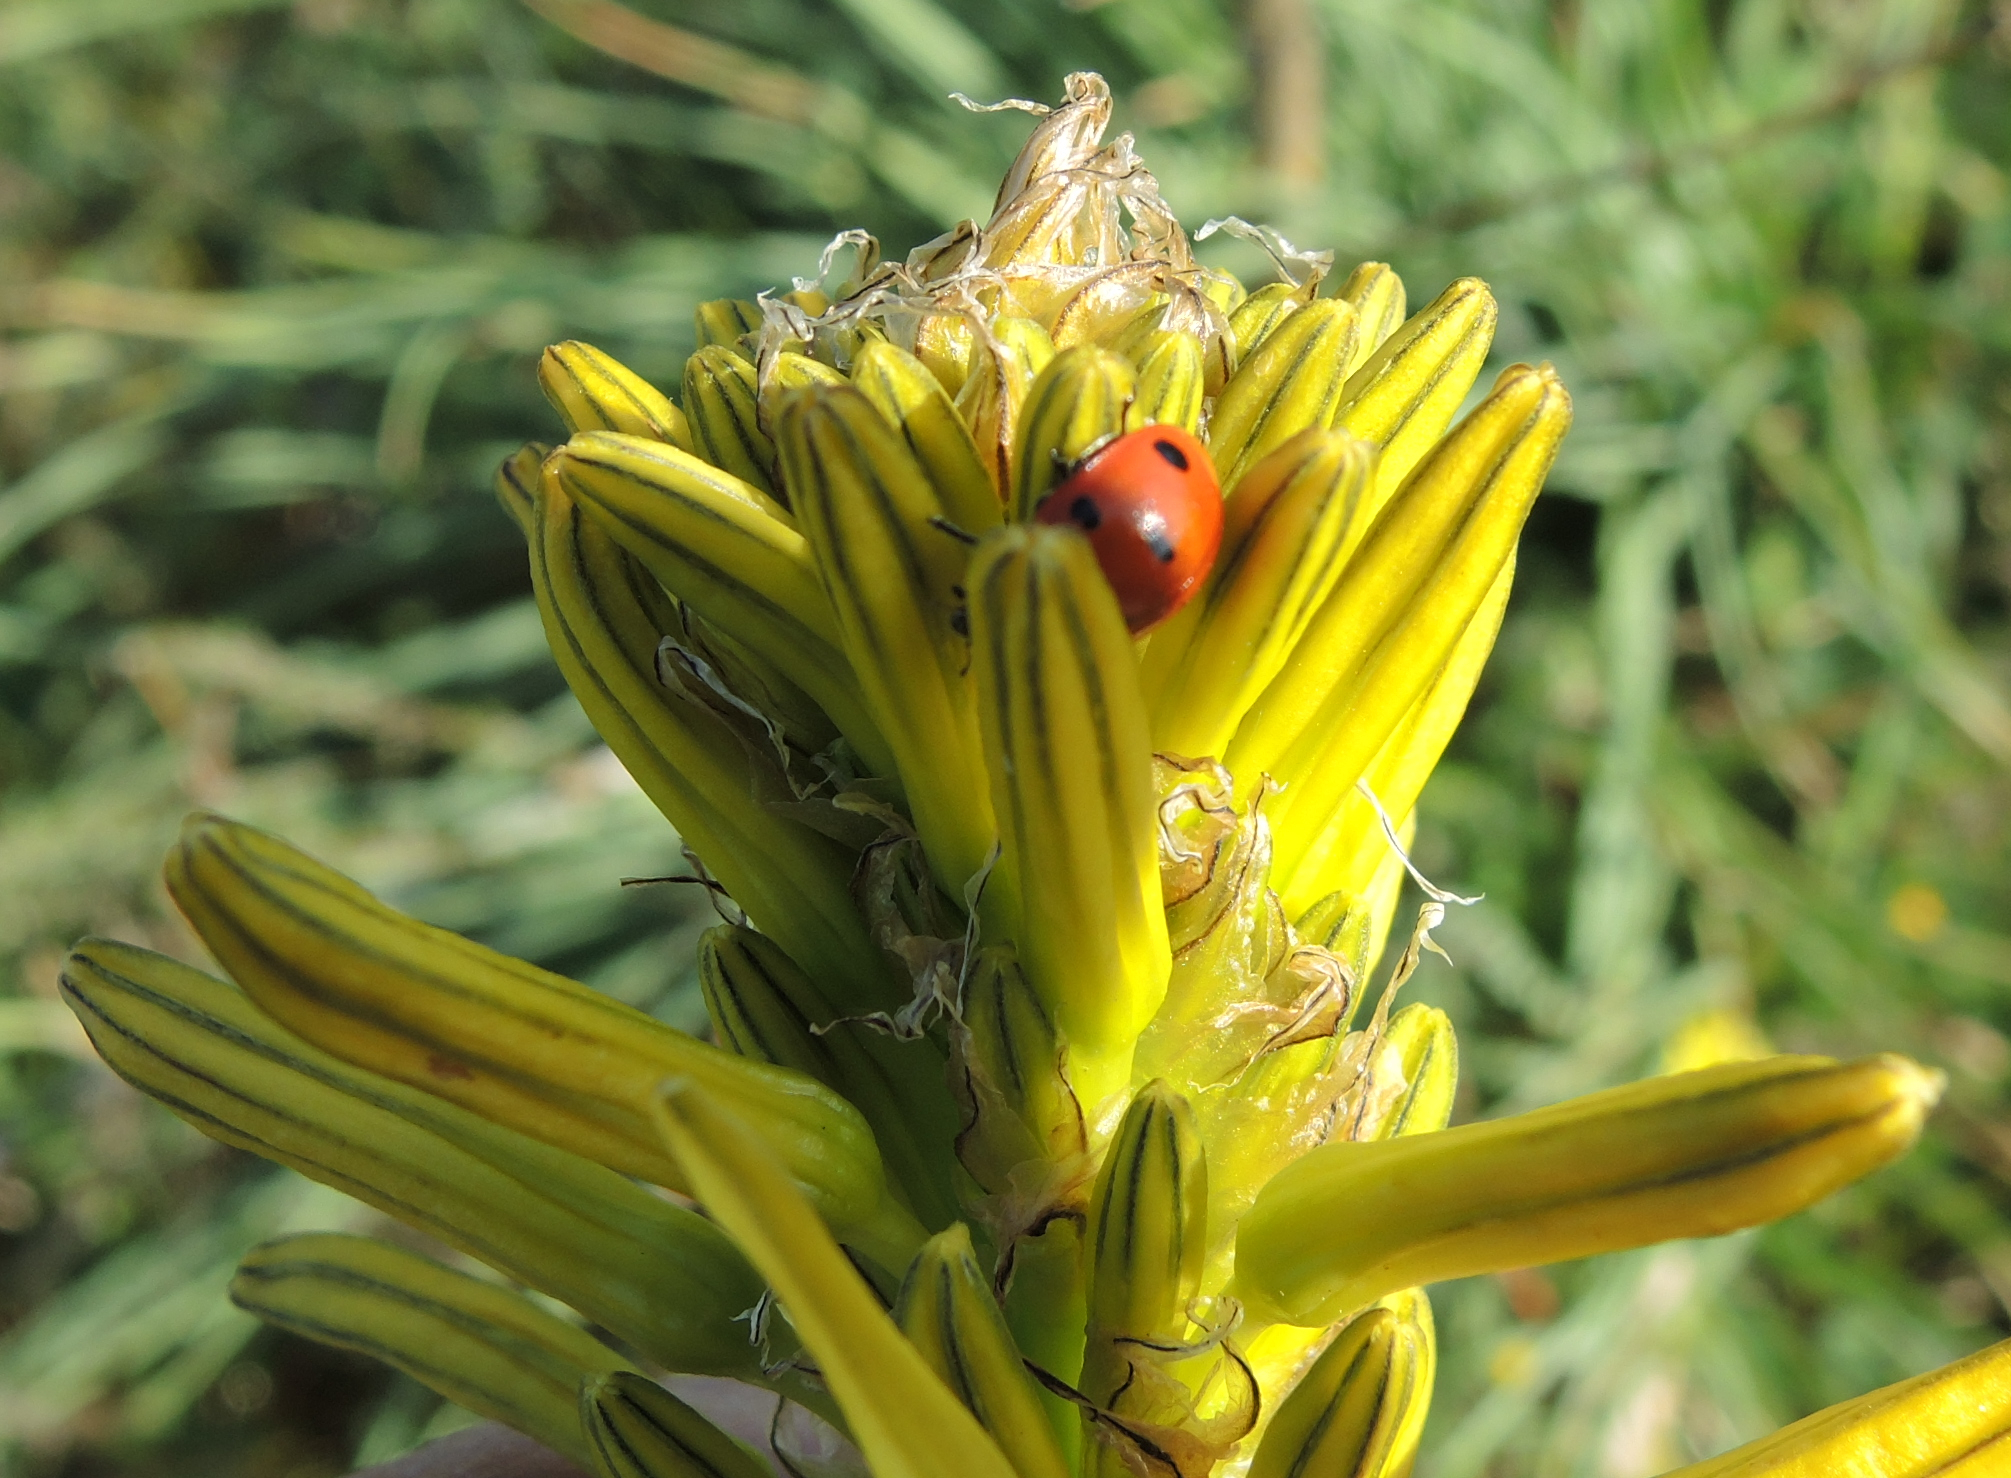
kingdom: Animalia
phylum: Arthropoda
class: Insecta
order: Coleoptera
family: Coccinellidae
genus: Coccinella
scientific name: Coccinella septempunctata
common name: Sevenspotted lady beetle
